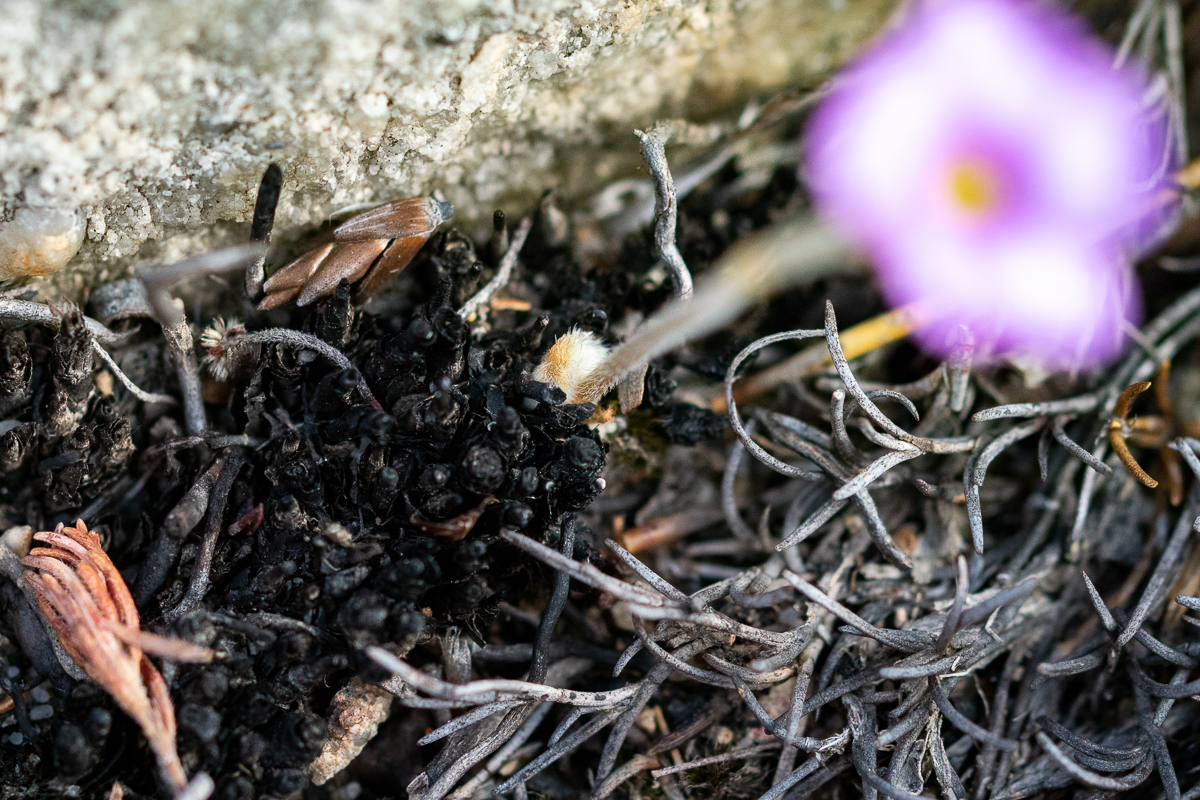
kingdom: Plantae
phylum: Tracheophyta
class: Magnoliopsida
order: Oxalidales
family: Oxalidaceae
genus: Oxalis
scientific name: Oxalis truncatula
